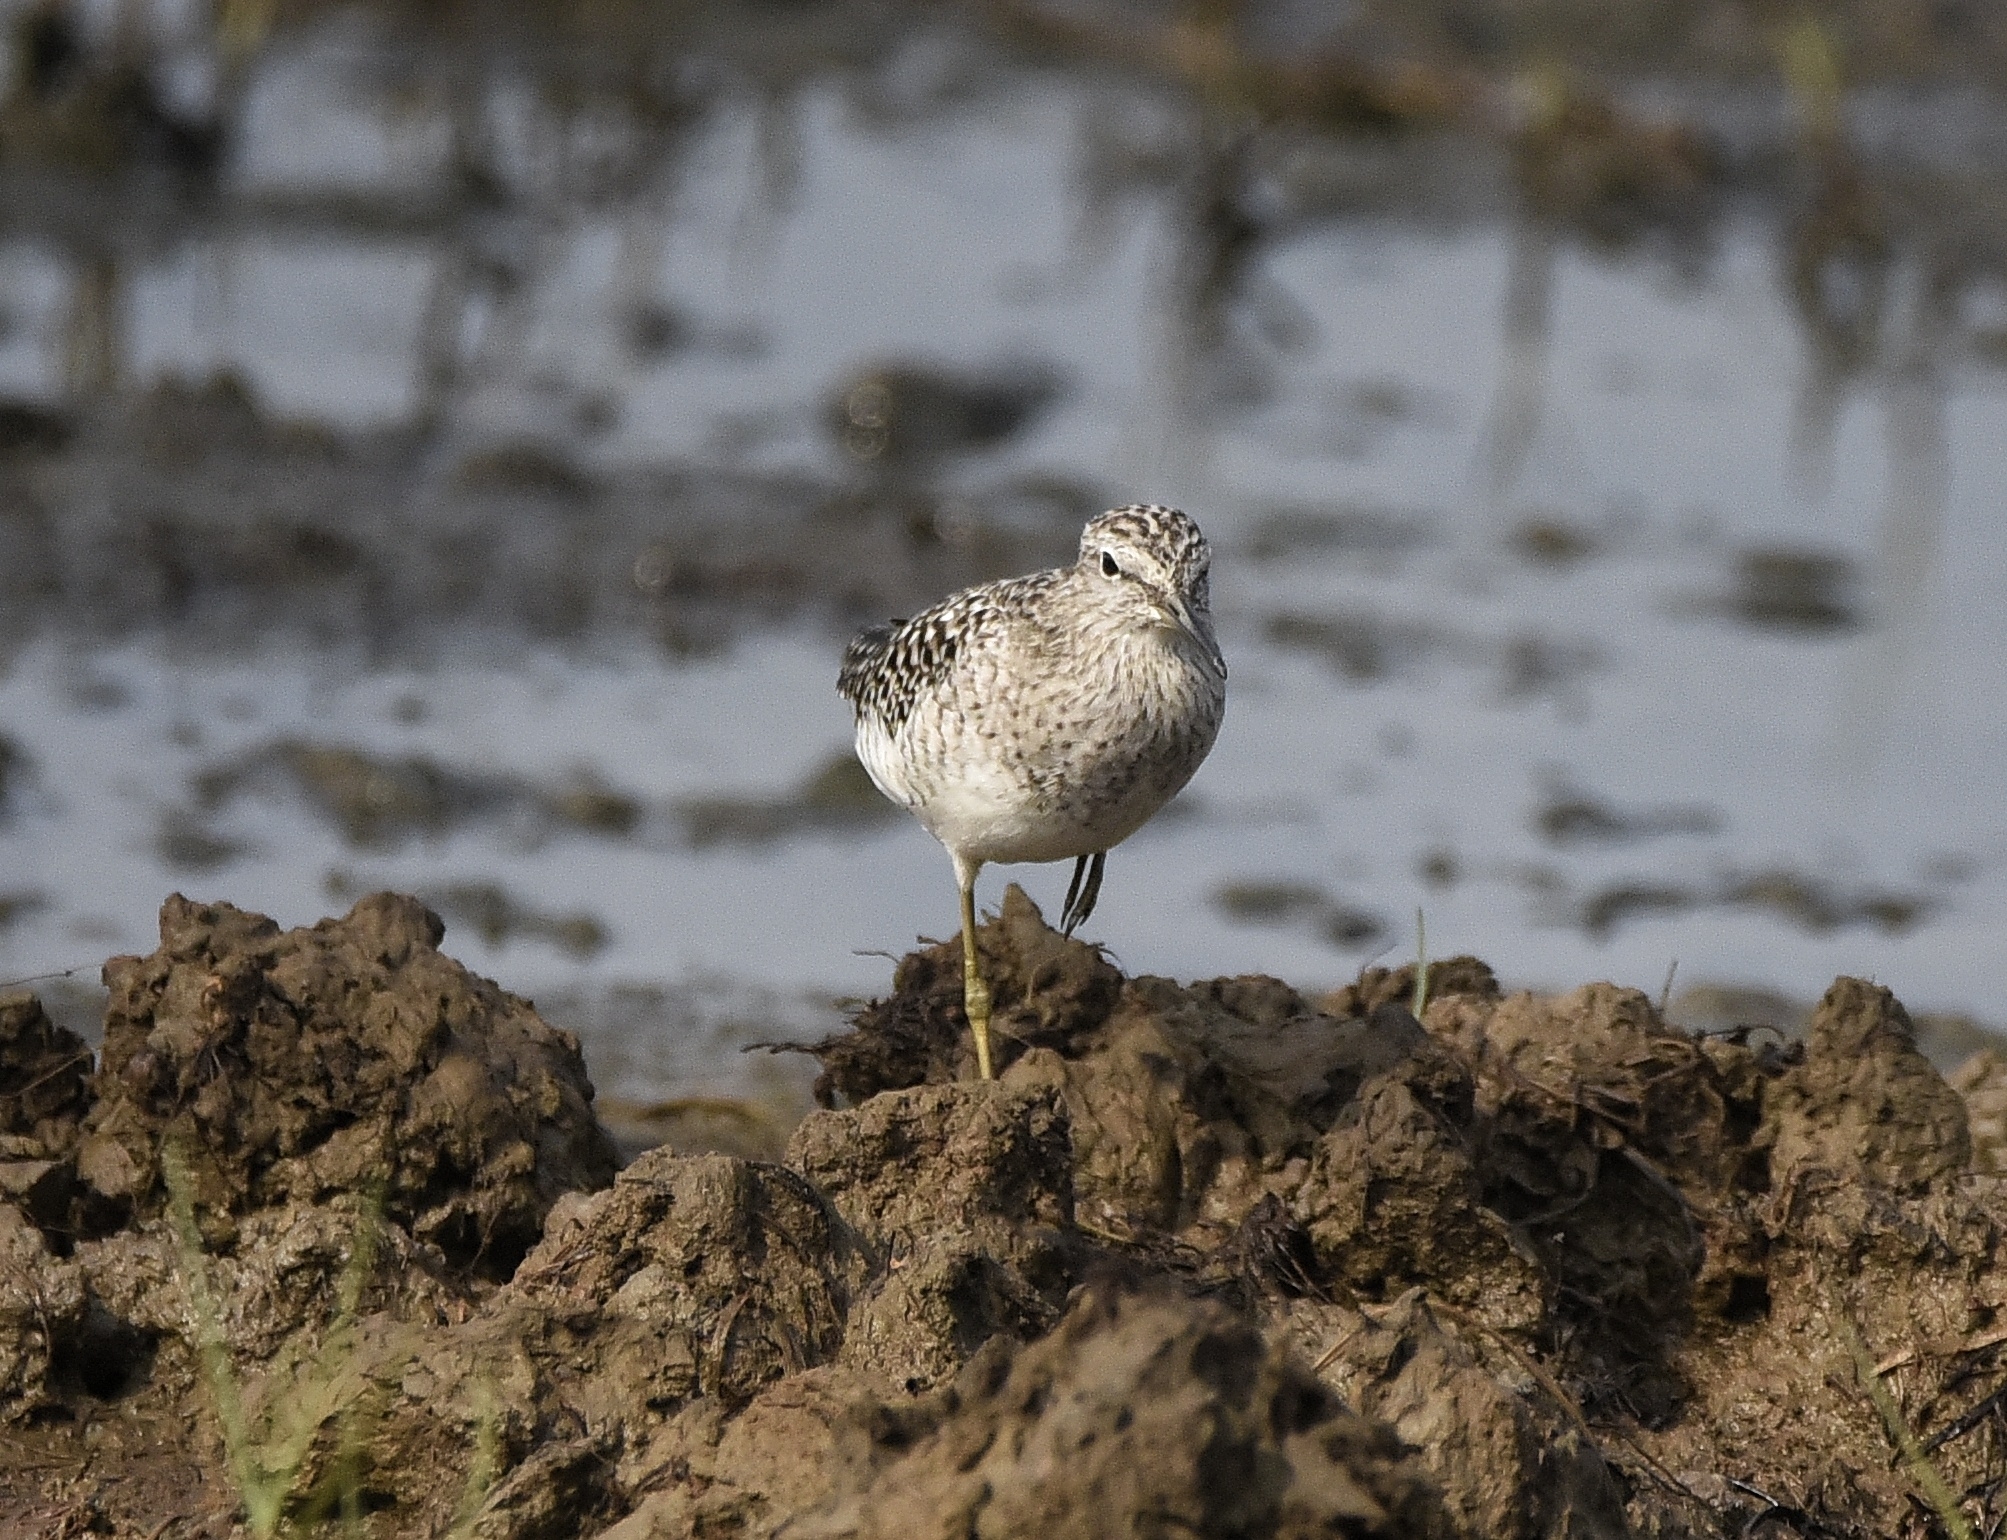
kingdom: Animalia
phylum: Chordata
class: Aves
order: Charadriiformes
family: Scolopacidae
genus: Tringa
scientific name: Tringa glareola
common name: Wood sandpiper
